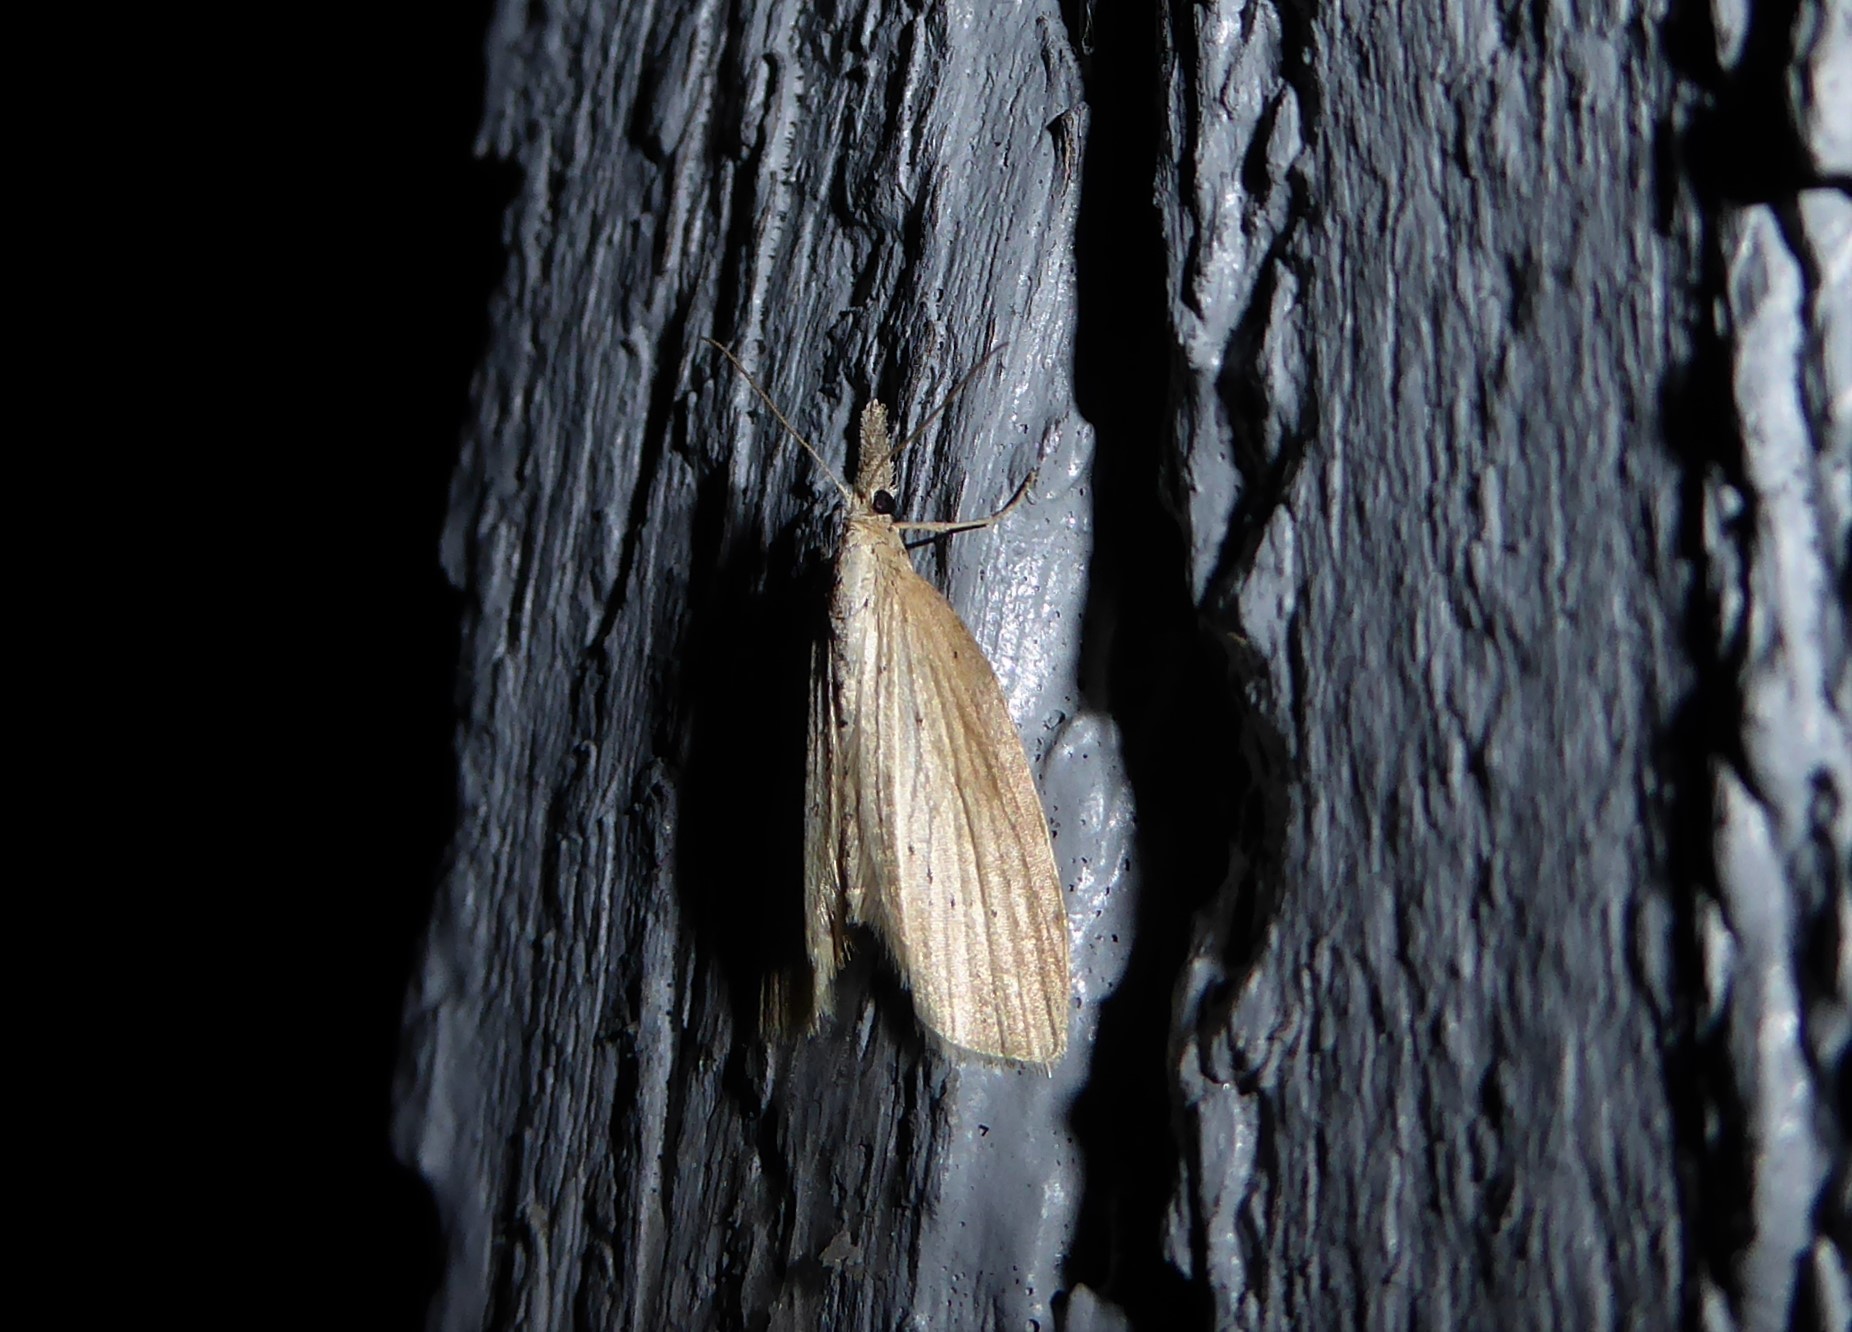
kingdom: Animalia
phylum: Arthropoda
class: Insecta
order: Lepidoptera
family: Geometridae
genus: Microdes
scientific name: Microdes epicryptis
